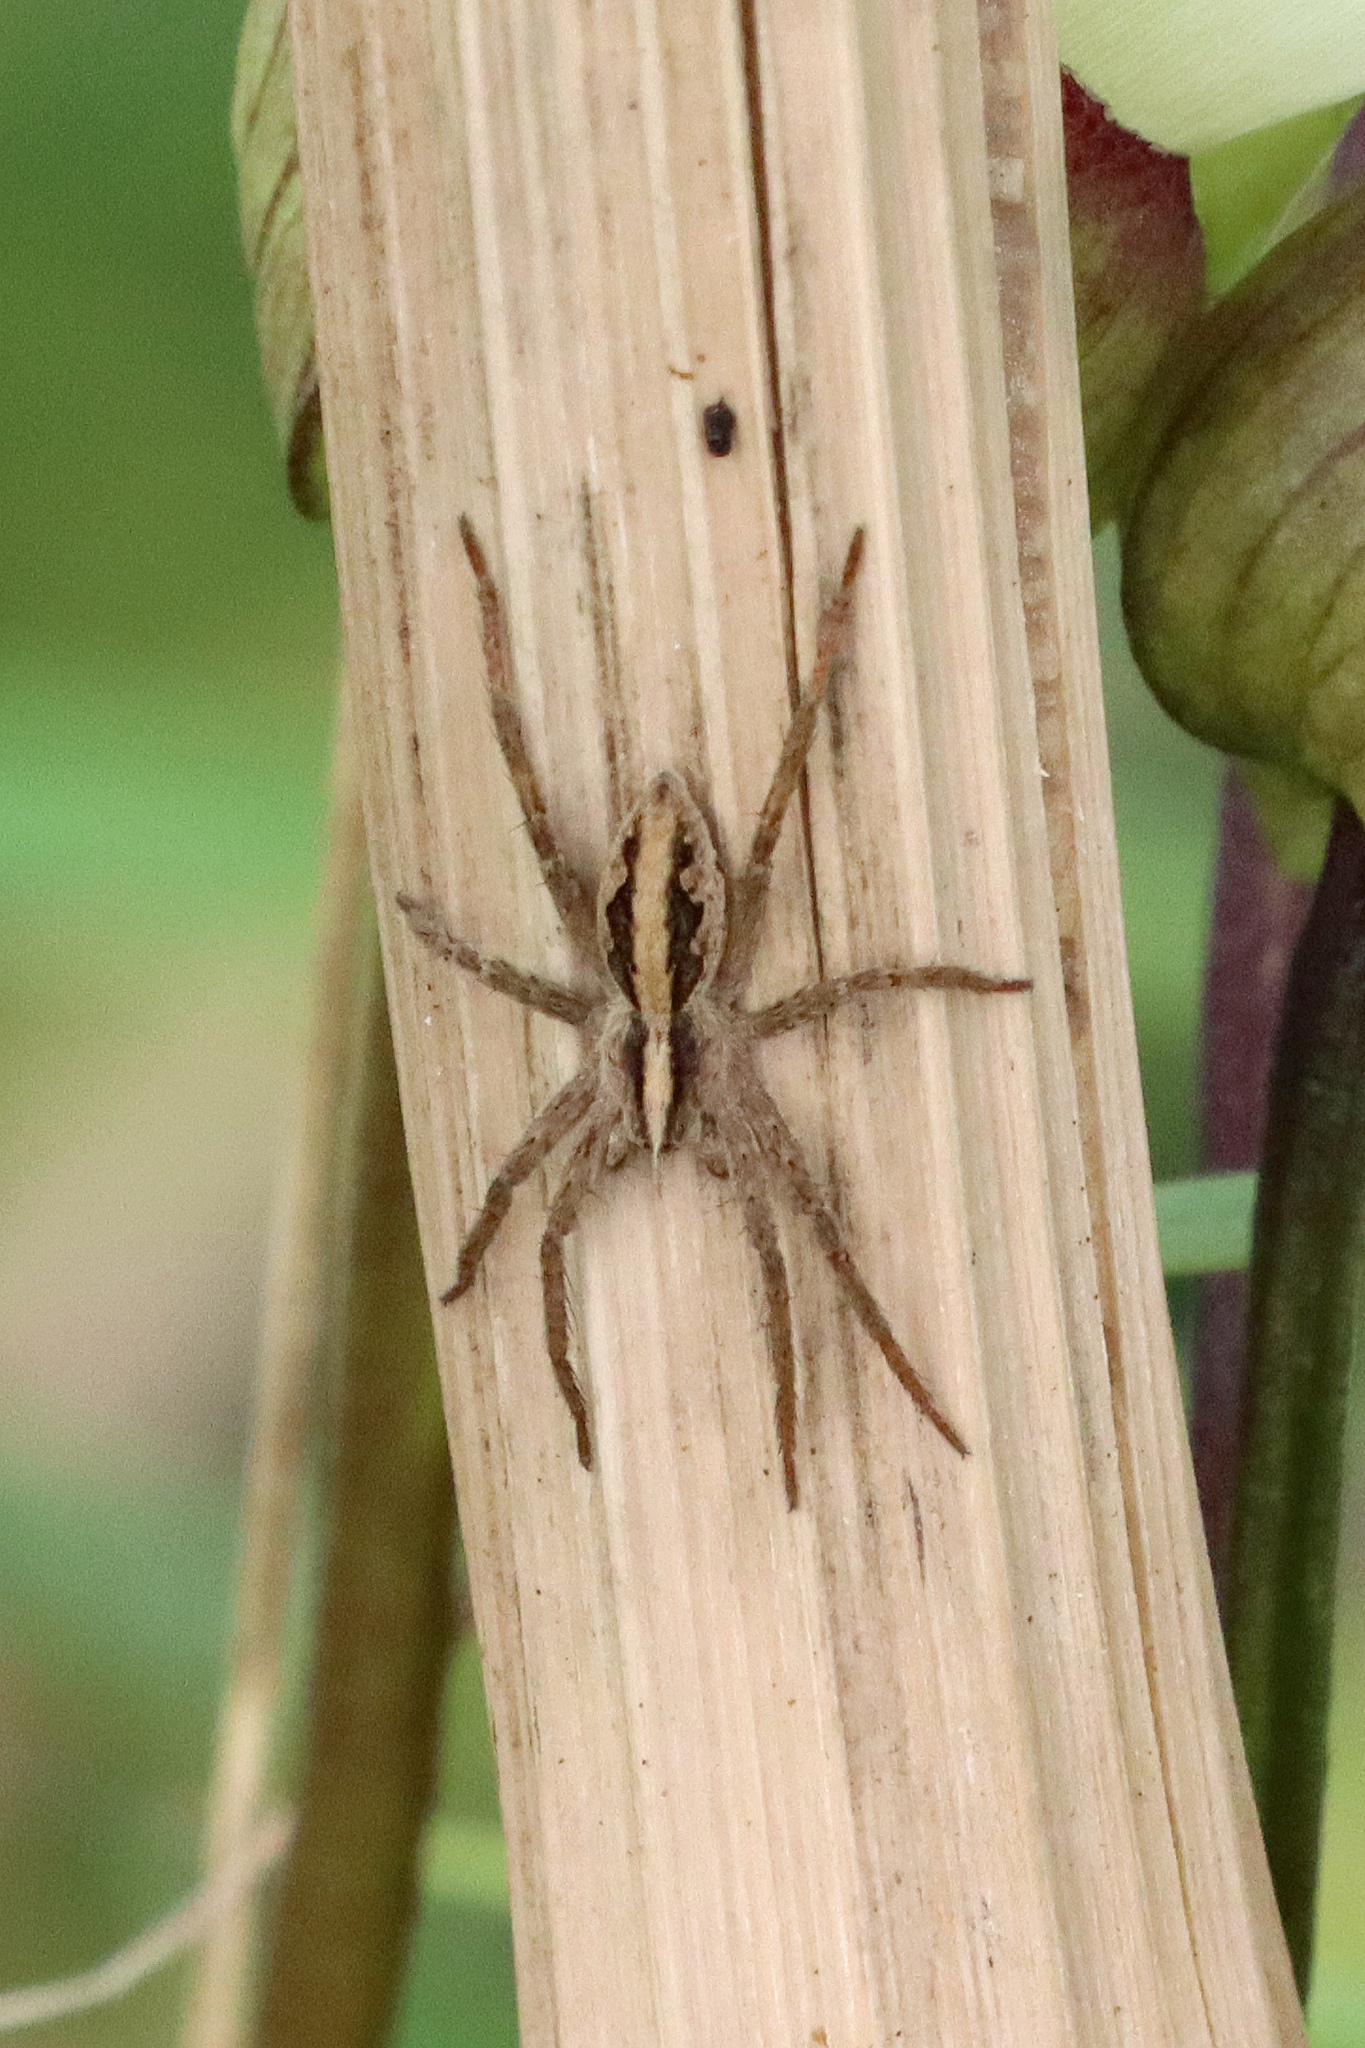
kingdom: Animalia
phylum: Arthropoda
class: Arachnida
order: Araneae
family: Pisauridae
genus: Pisaura
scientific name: Pisaura mirabilis
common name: Tent spider
